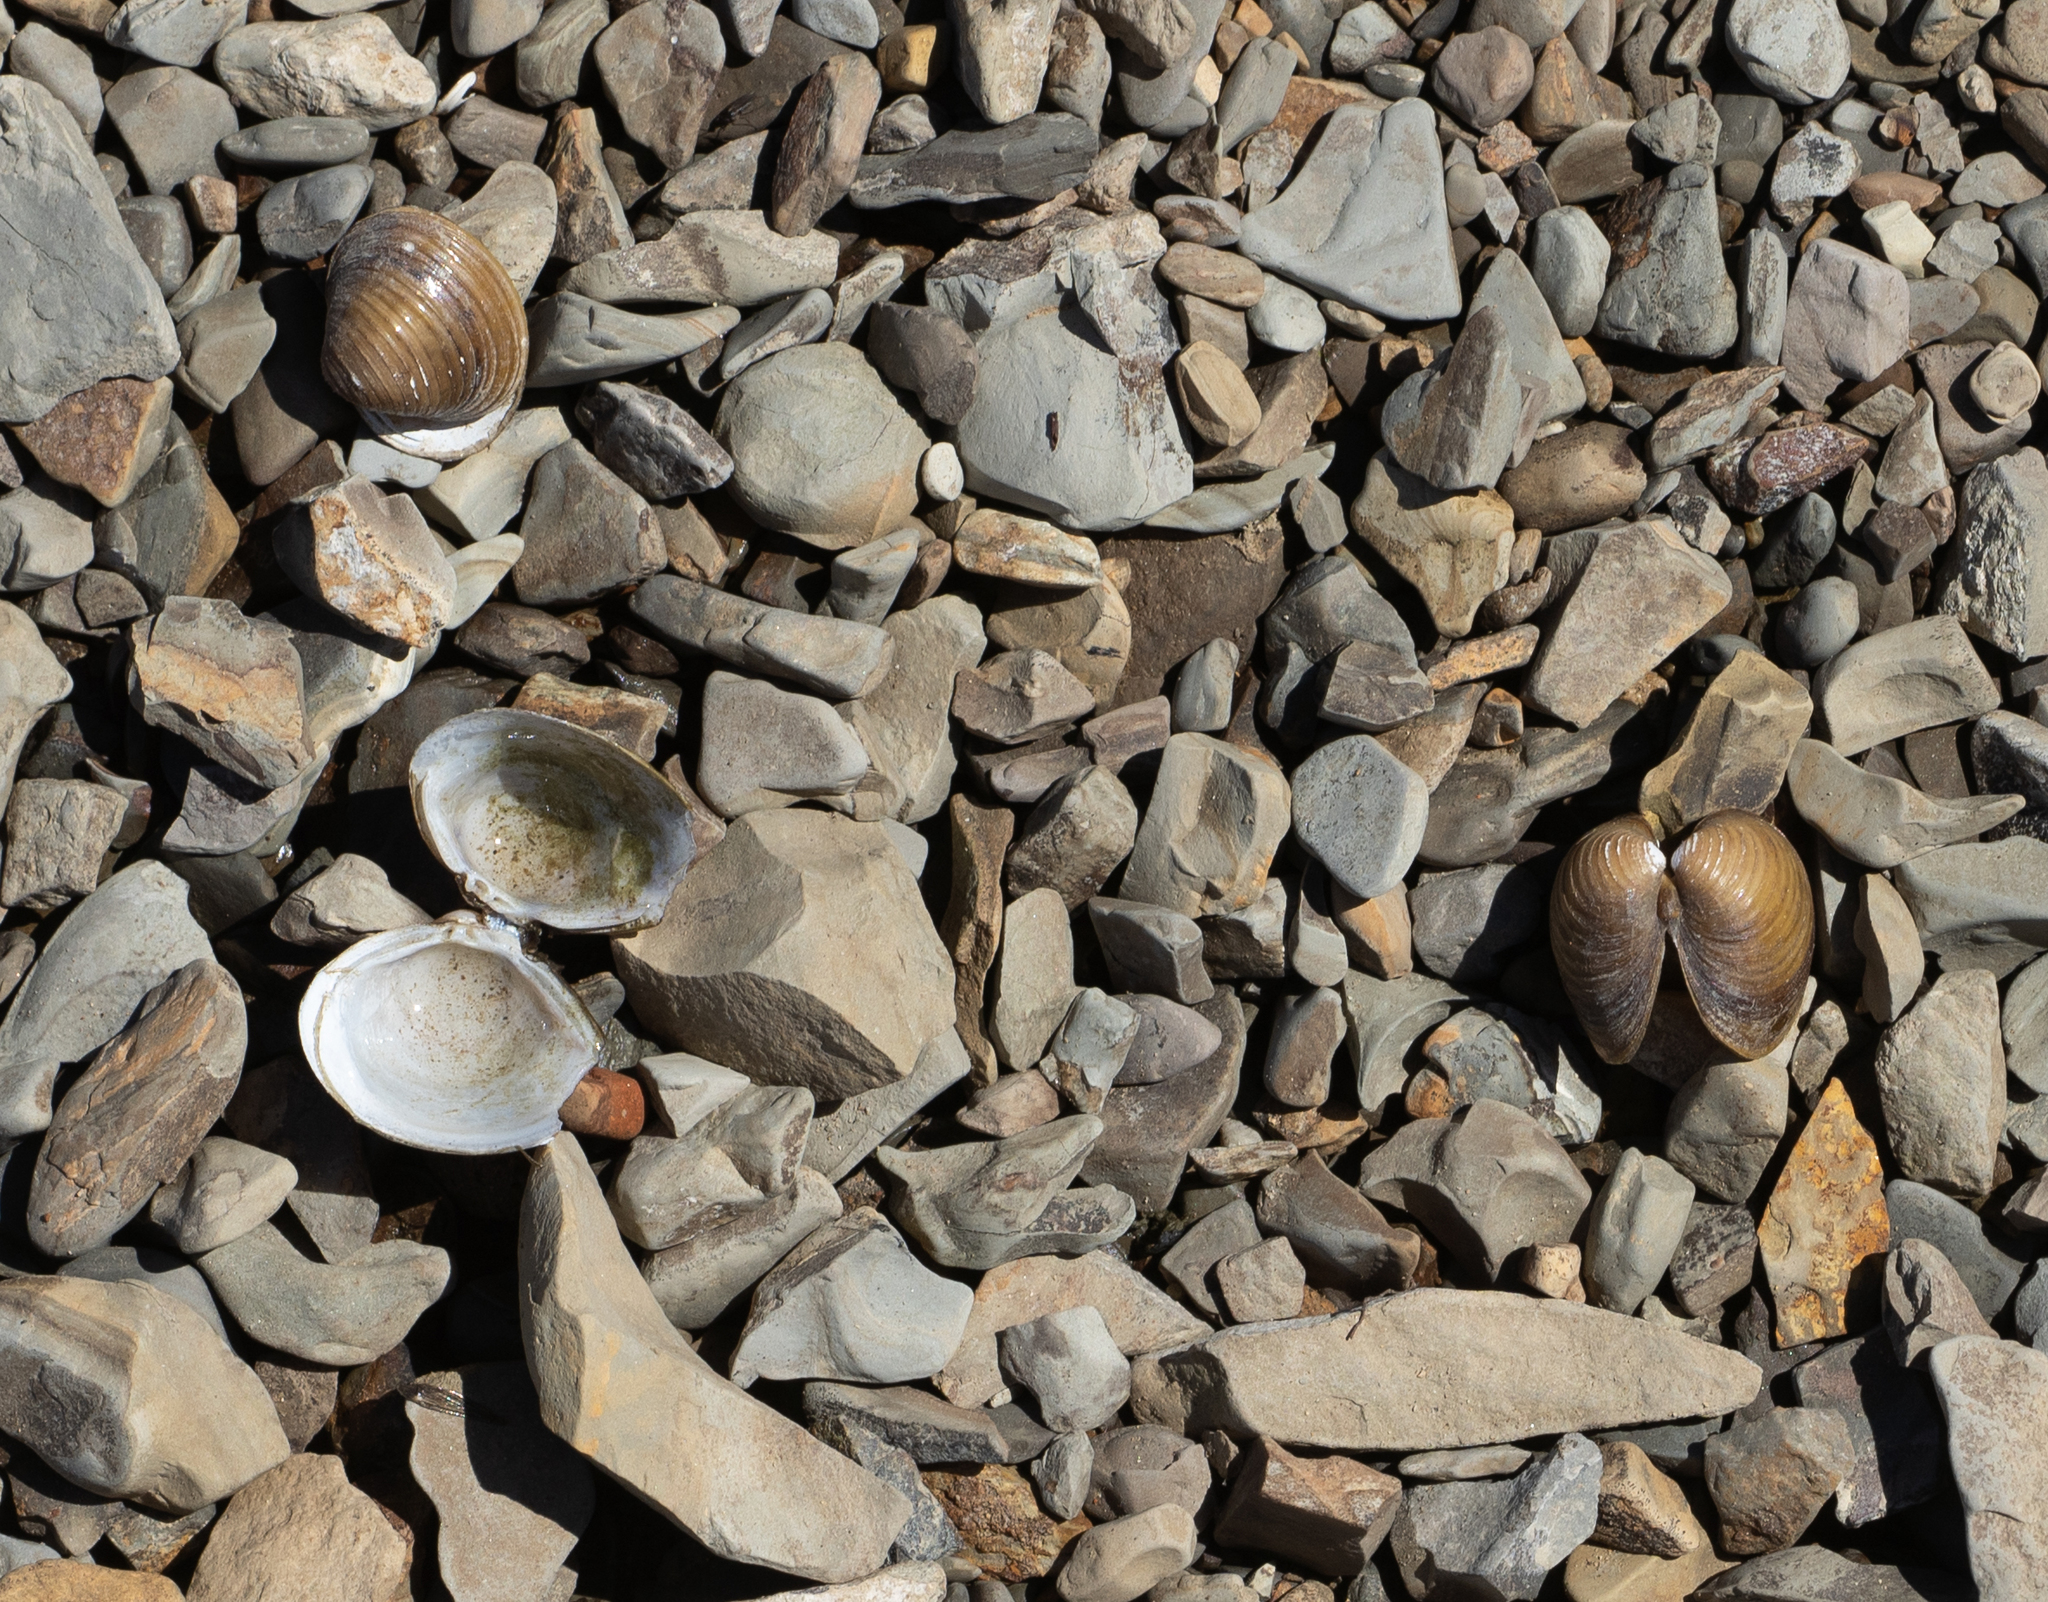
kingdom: Animalia
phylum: Mollusca
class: Bivalvia
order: Venerida
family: Cyrenidae
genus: Corbicula
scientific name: Corbicula fluminea
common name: Asian clam
